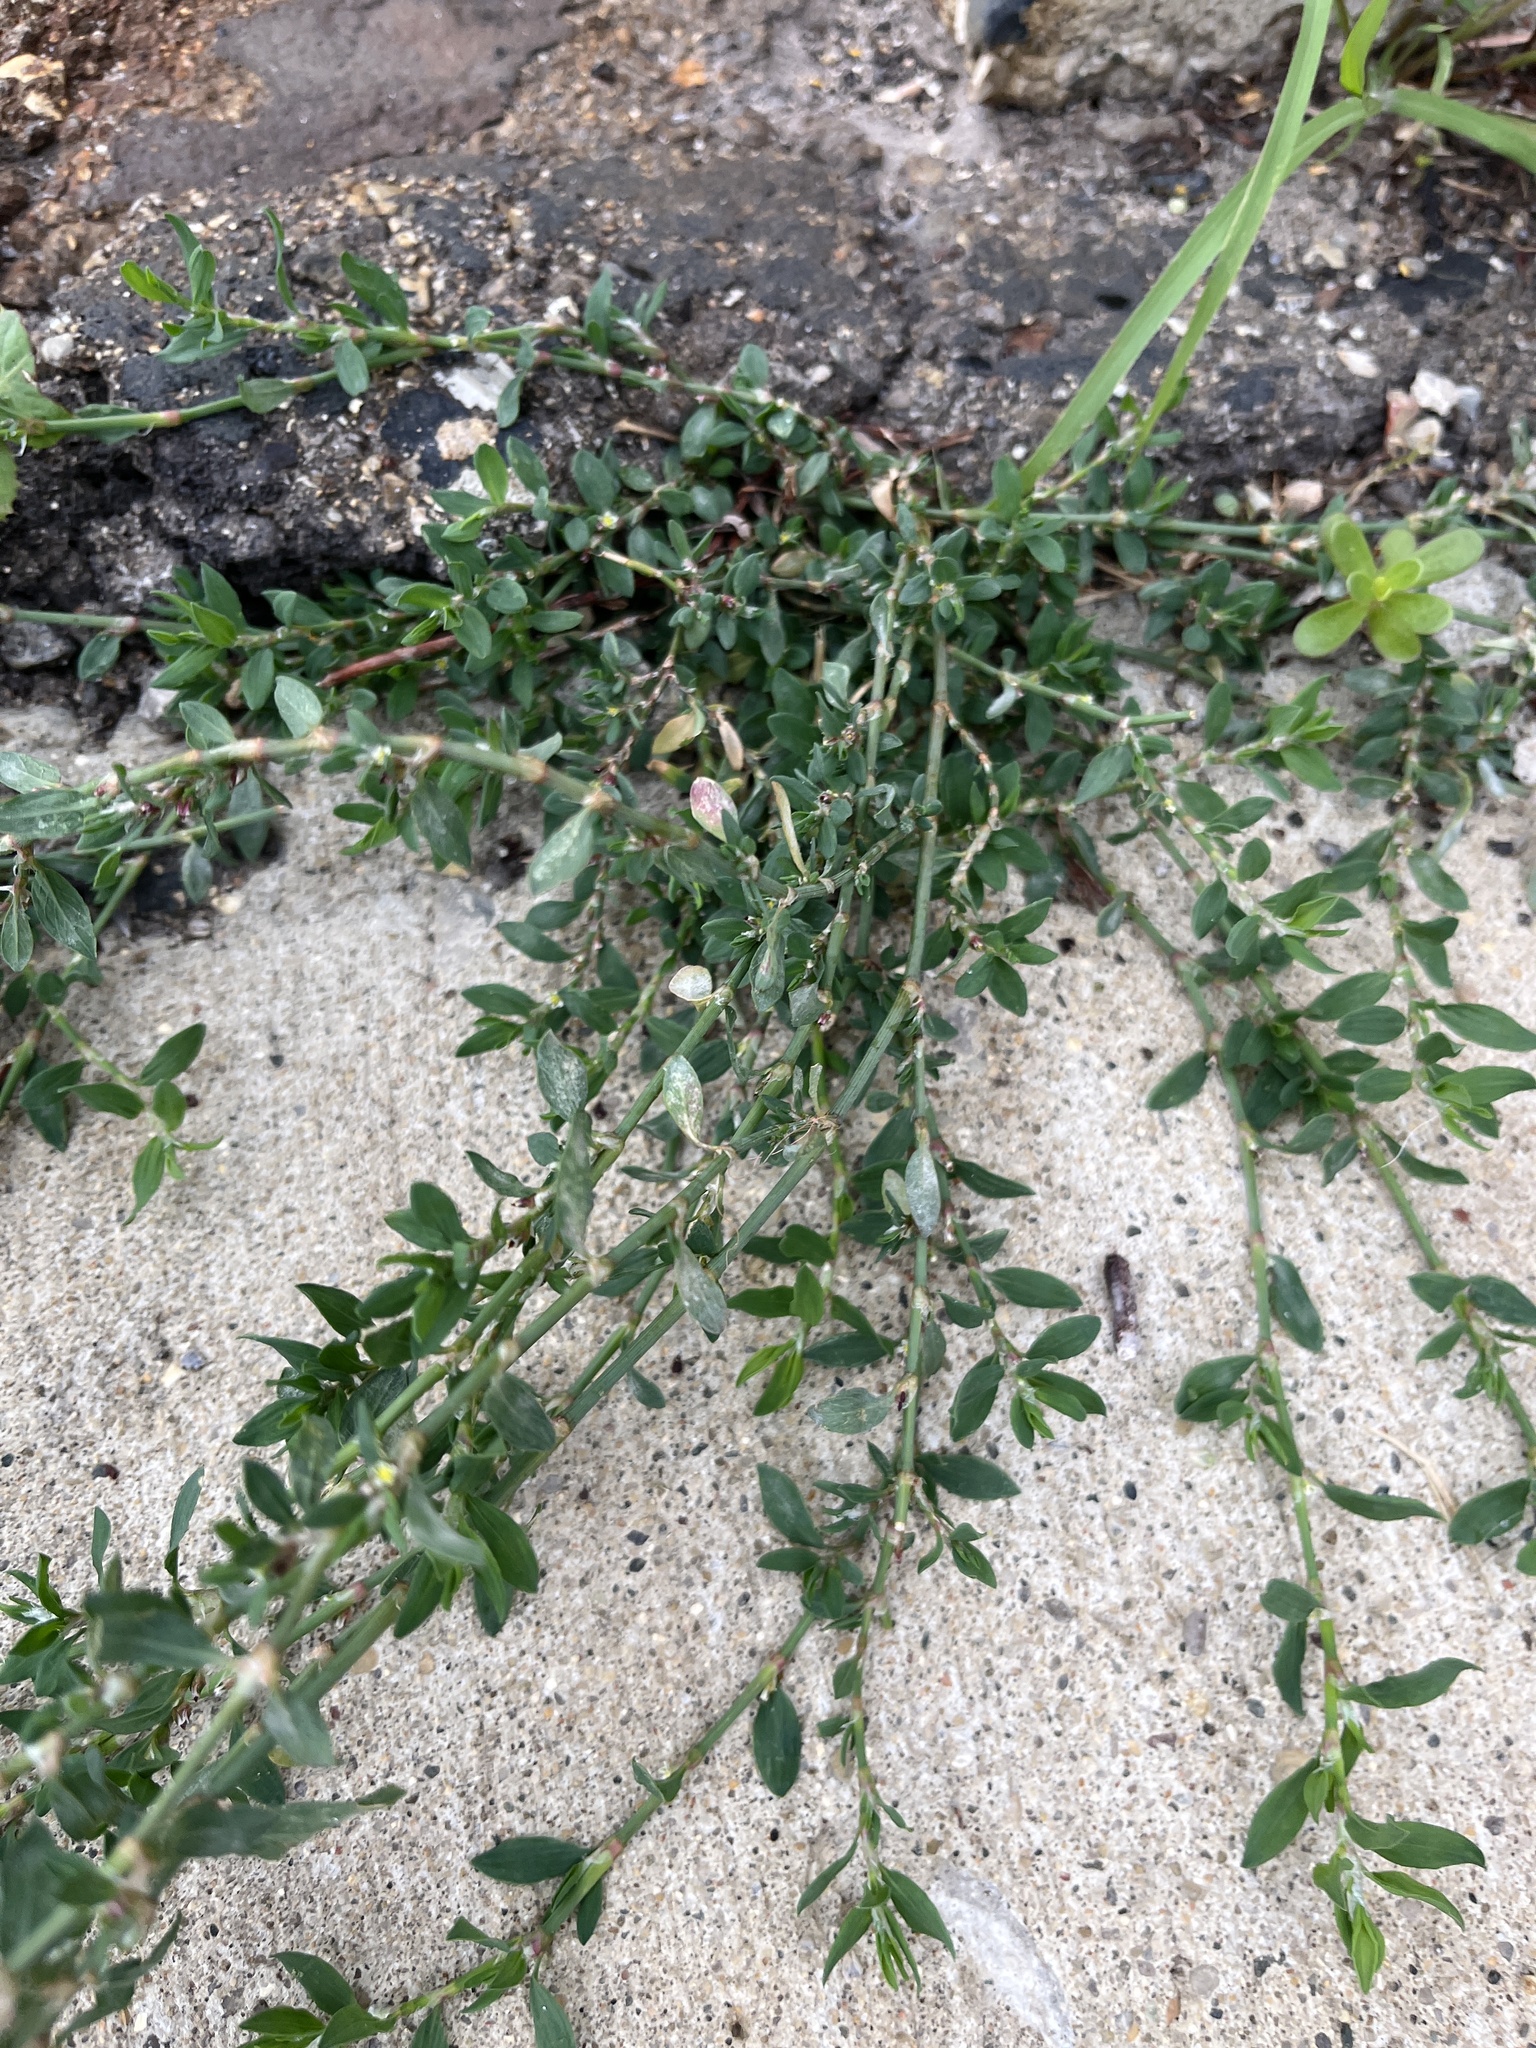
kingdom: Plantae
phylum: Tracheophyta
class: Magnoliopsida
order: Caryophyllales
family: Polygonaceae
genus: Polygonum
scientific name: Polygonum aviculare
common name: Prostrate knotweed
